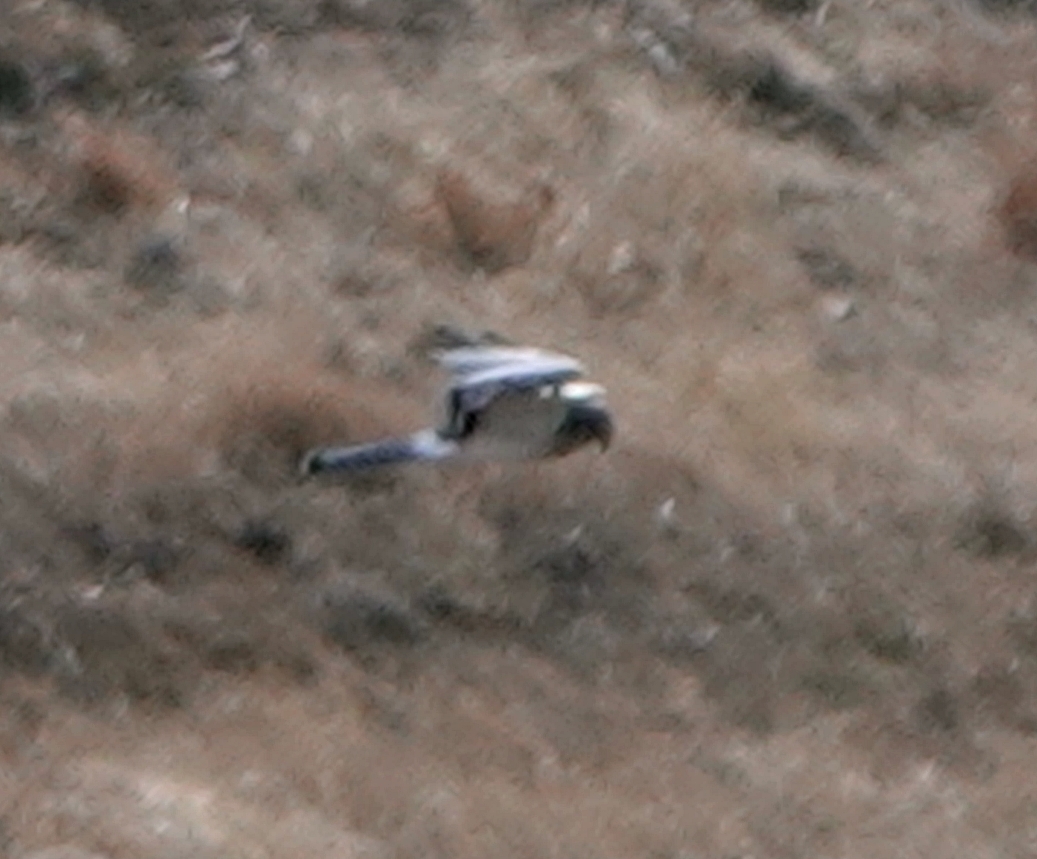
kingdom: Animalia
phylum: Chordata
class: Aves
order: Accipitriformes
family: Accipitridae
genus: Circus
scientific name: Circus cyaneus
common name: Hen harrier
